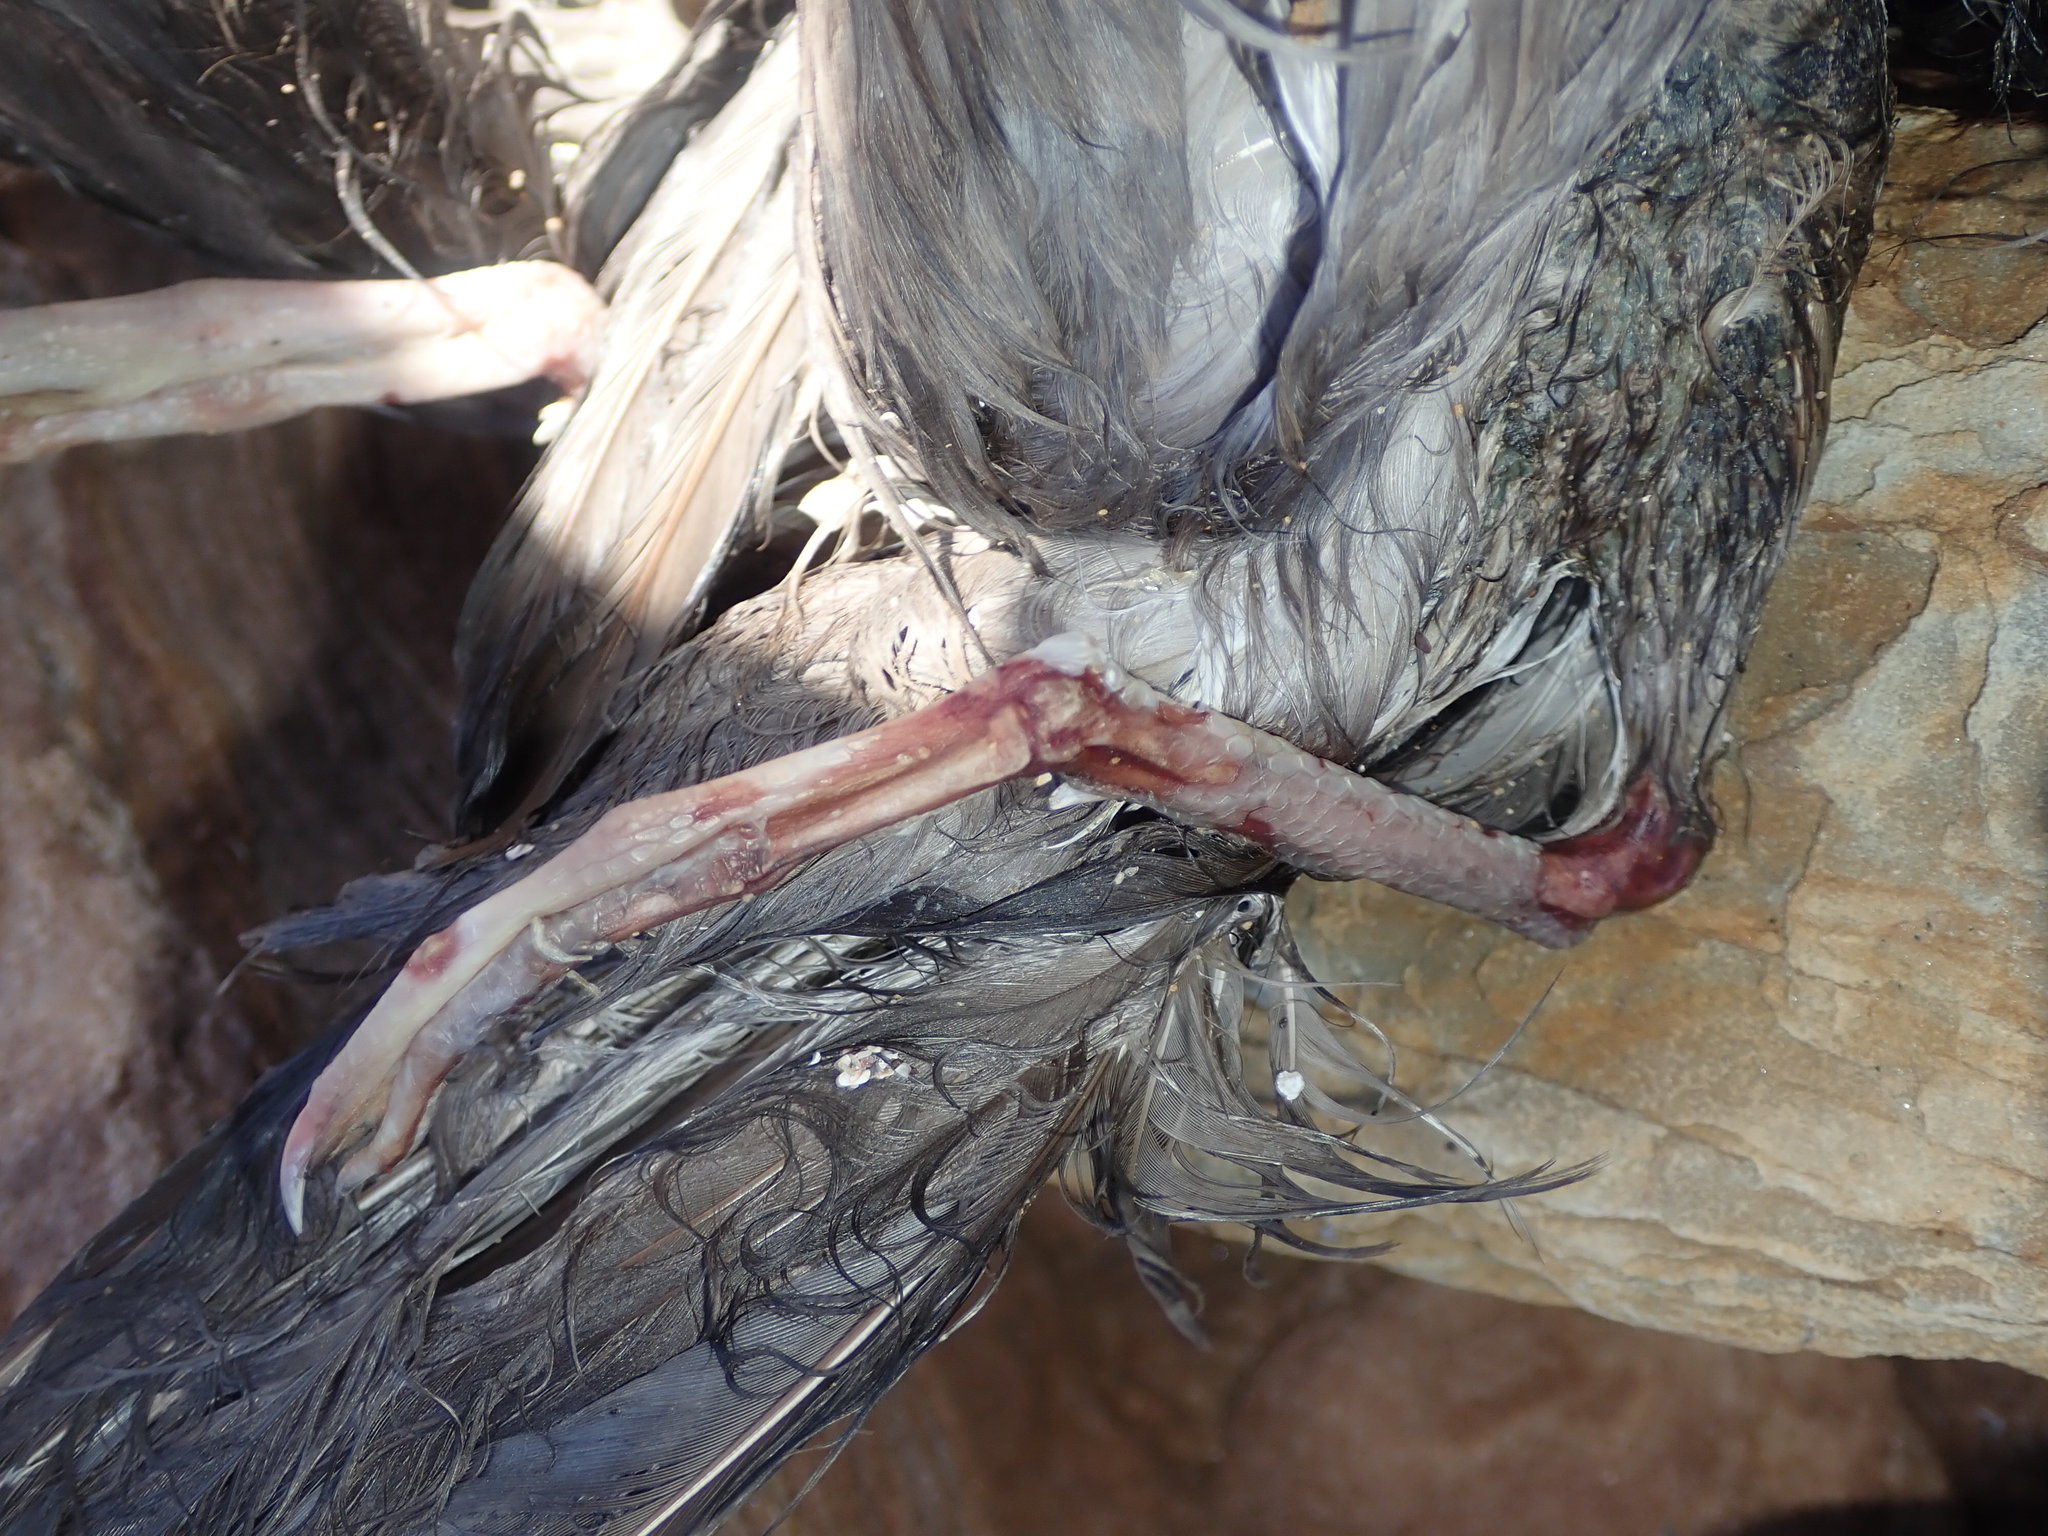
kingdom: Animalia
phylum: Chordata
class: Aves
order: Procellariiformes
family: Procellariidae
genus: Puffinus
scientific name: Puffinus pacificus
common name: Wedge-tailed shearwater
